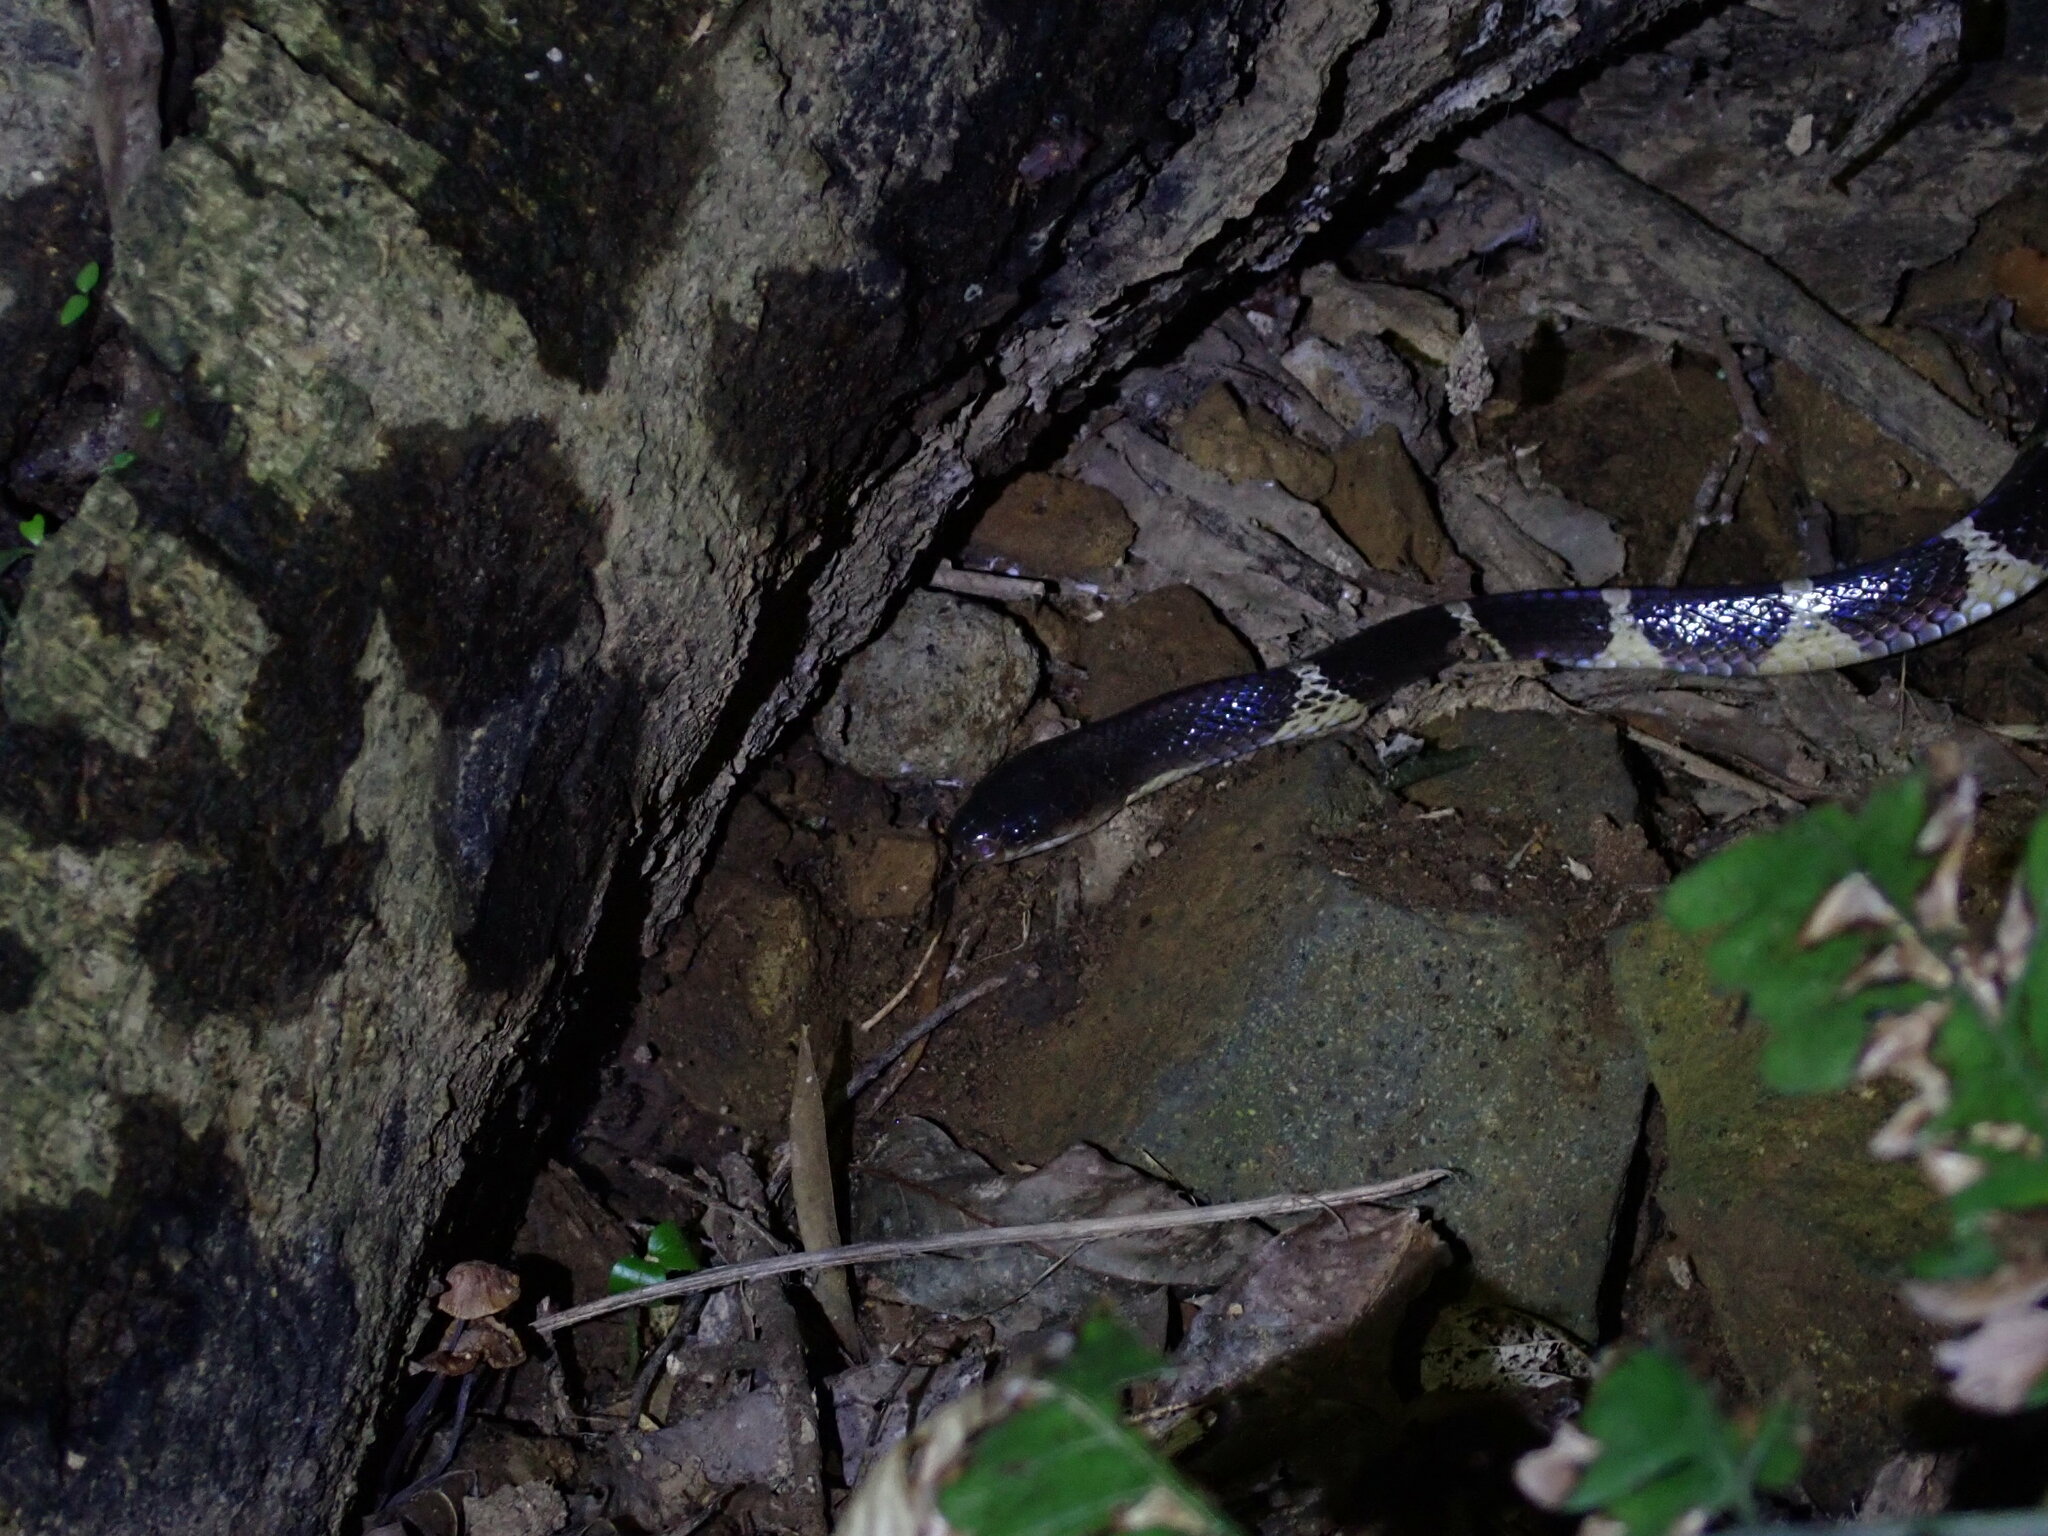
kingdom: Animalia
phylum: Chordata
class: Squamata
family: Elapidae
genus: Bungarus
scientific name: Bungarus multicinctus
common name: Many-banded krait
